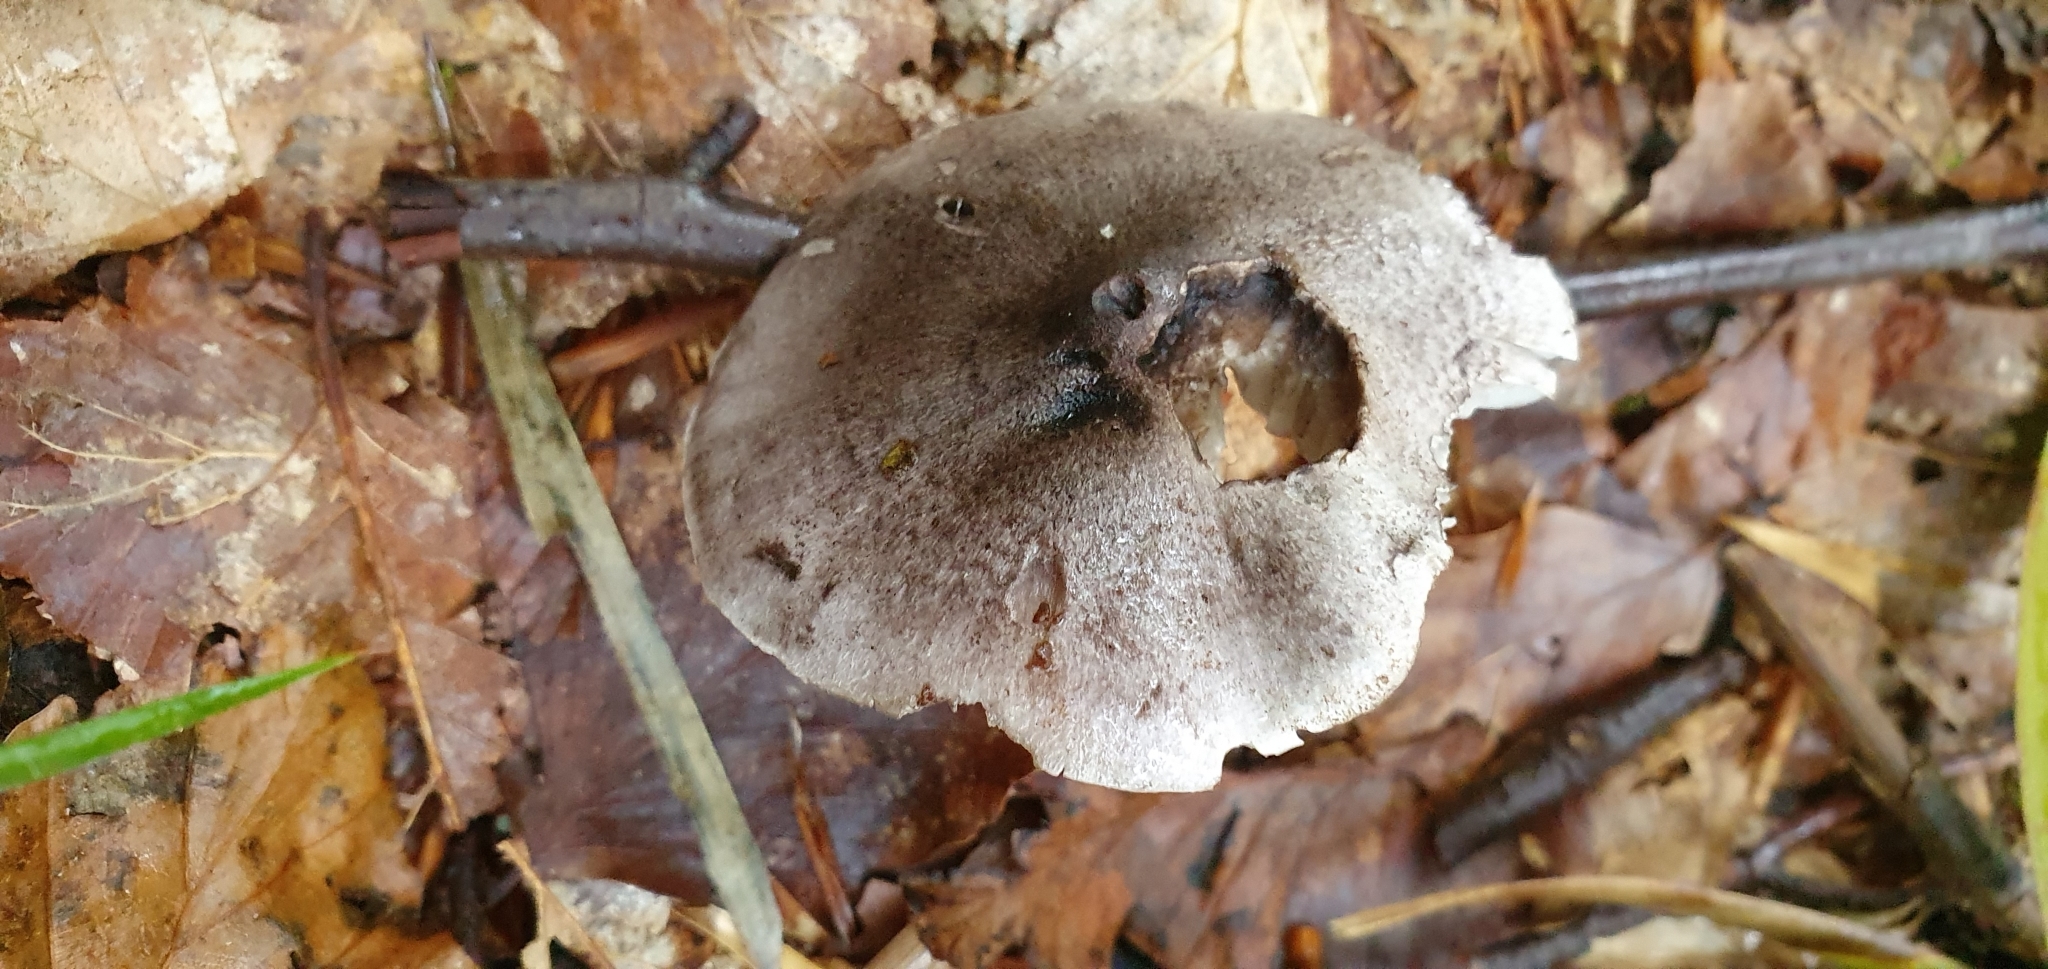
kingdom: Fungi
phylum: Basidiomycota
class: Agaricomycetes
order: Agaricales
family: Tricholomataceae
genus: Tricholoma
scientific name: Tricholoma sciodes
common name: Beech knight
